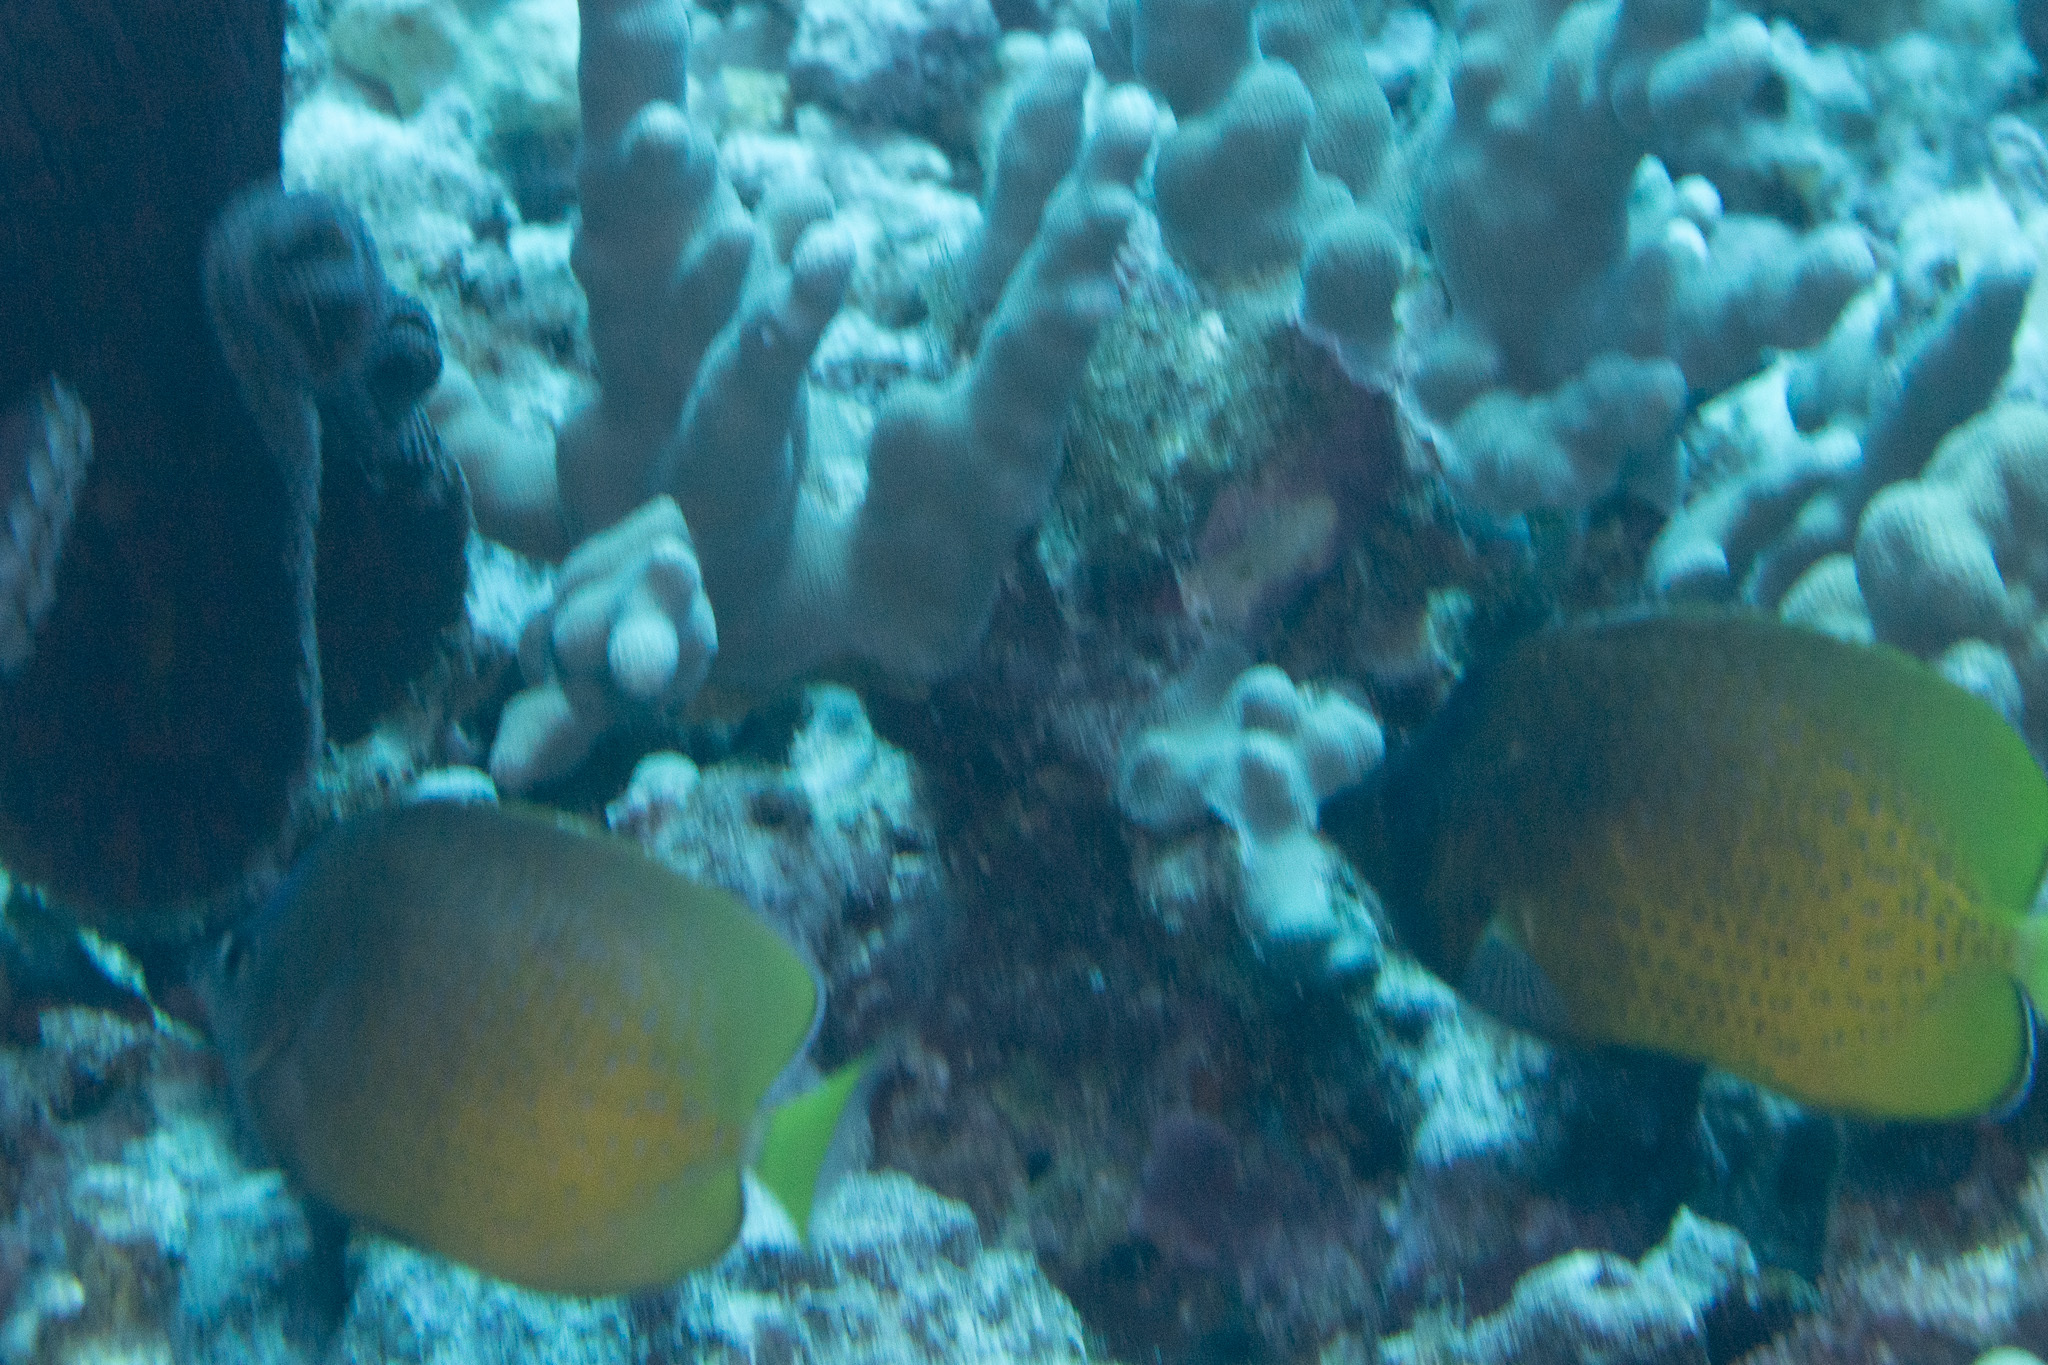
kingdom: Animalia
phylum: Chordata
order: Perciformes
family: Chaetodontidae
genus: Chaetodon
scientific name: Chaetodon kleinii
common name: Klein's butterflyfish
